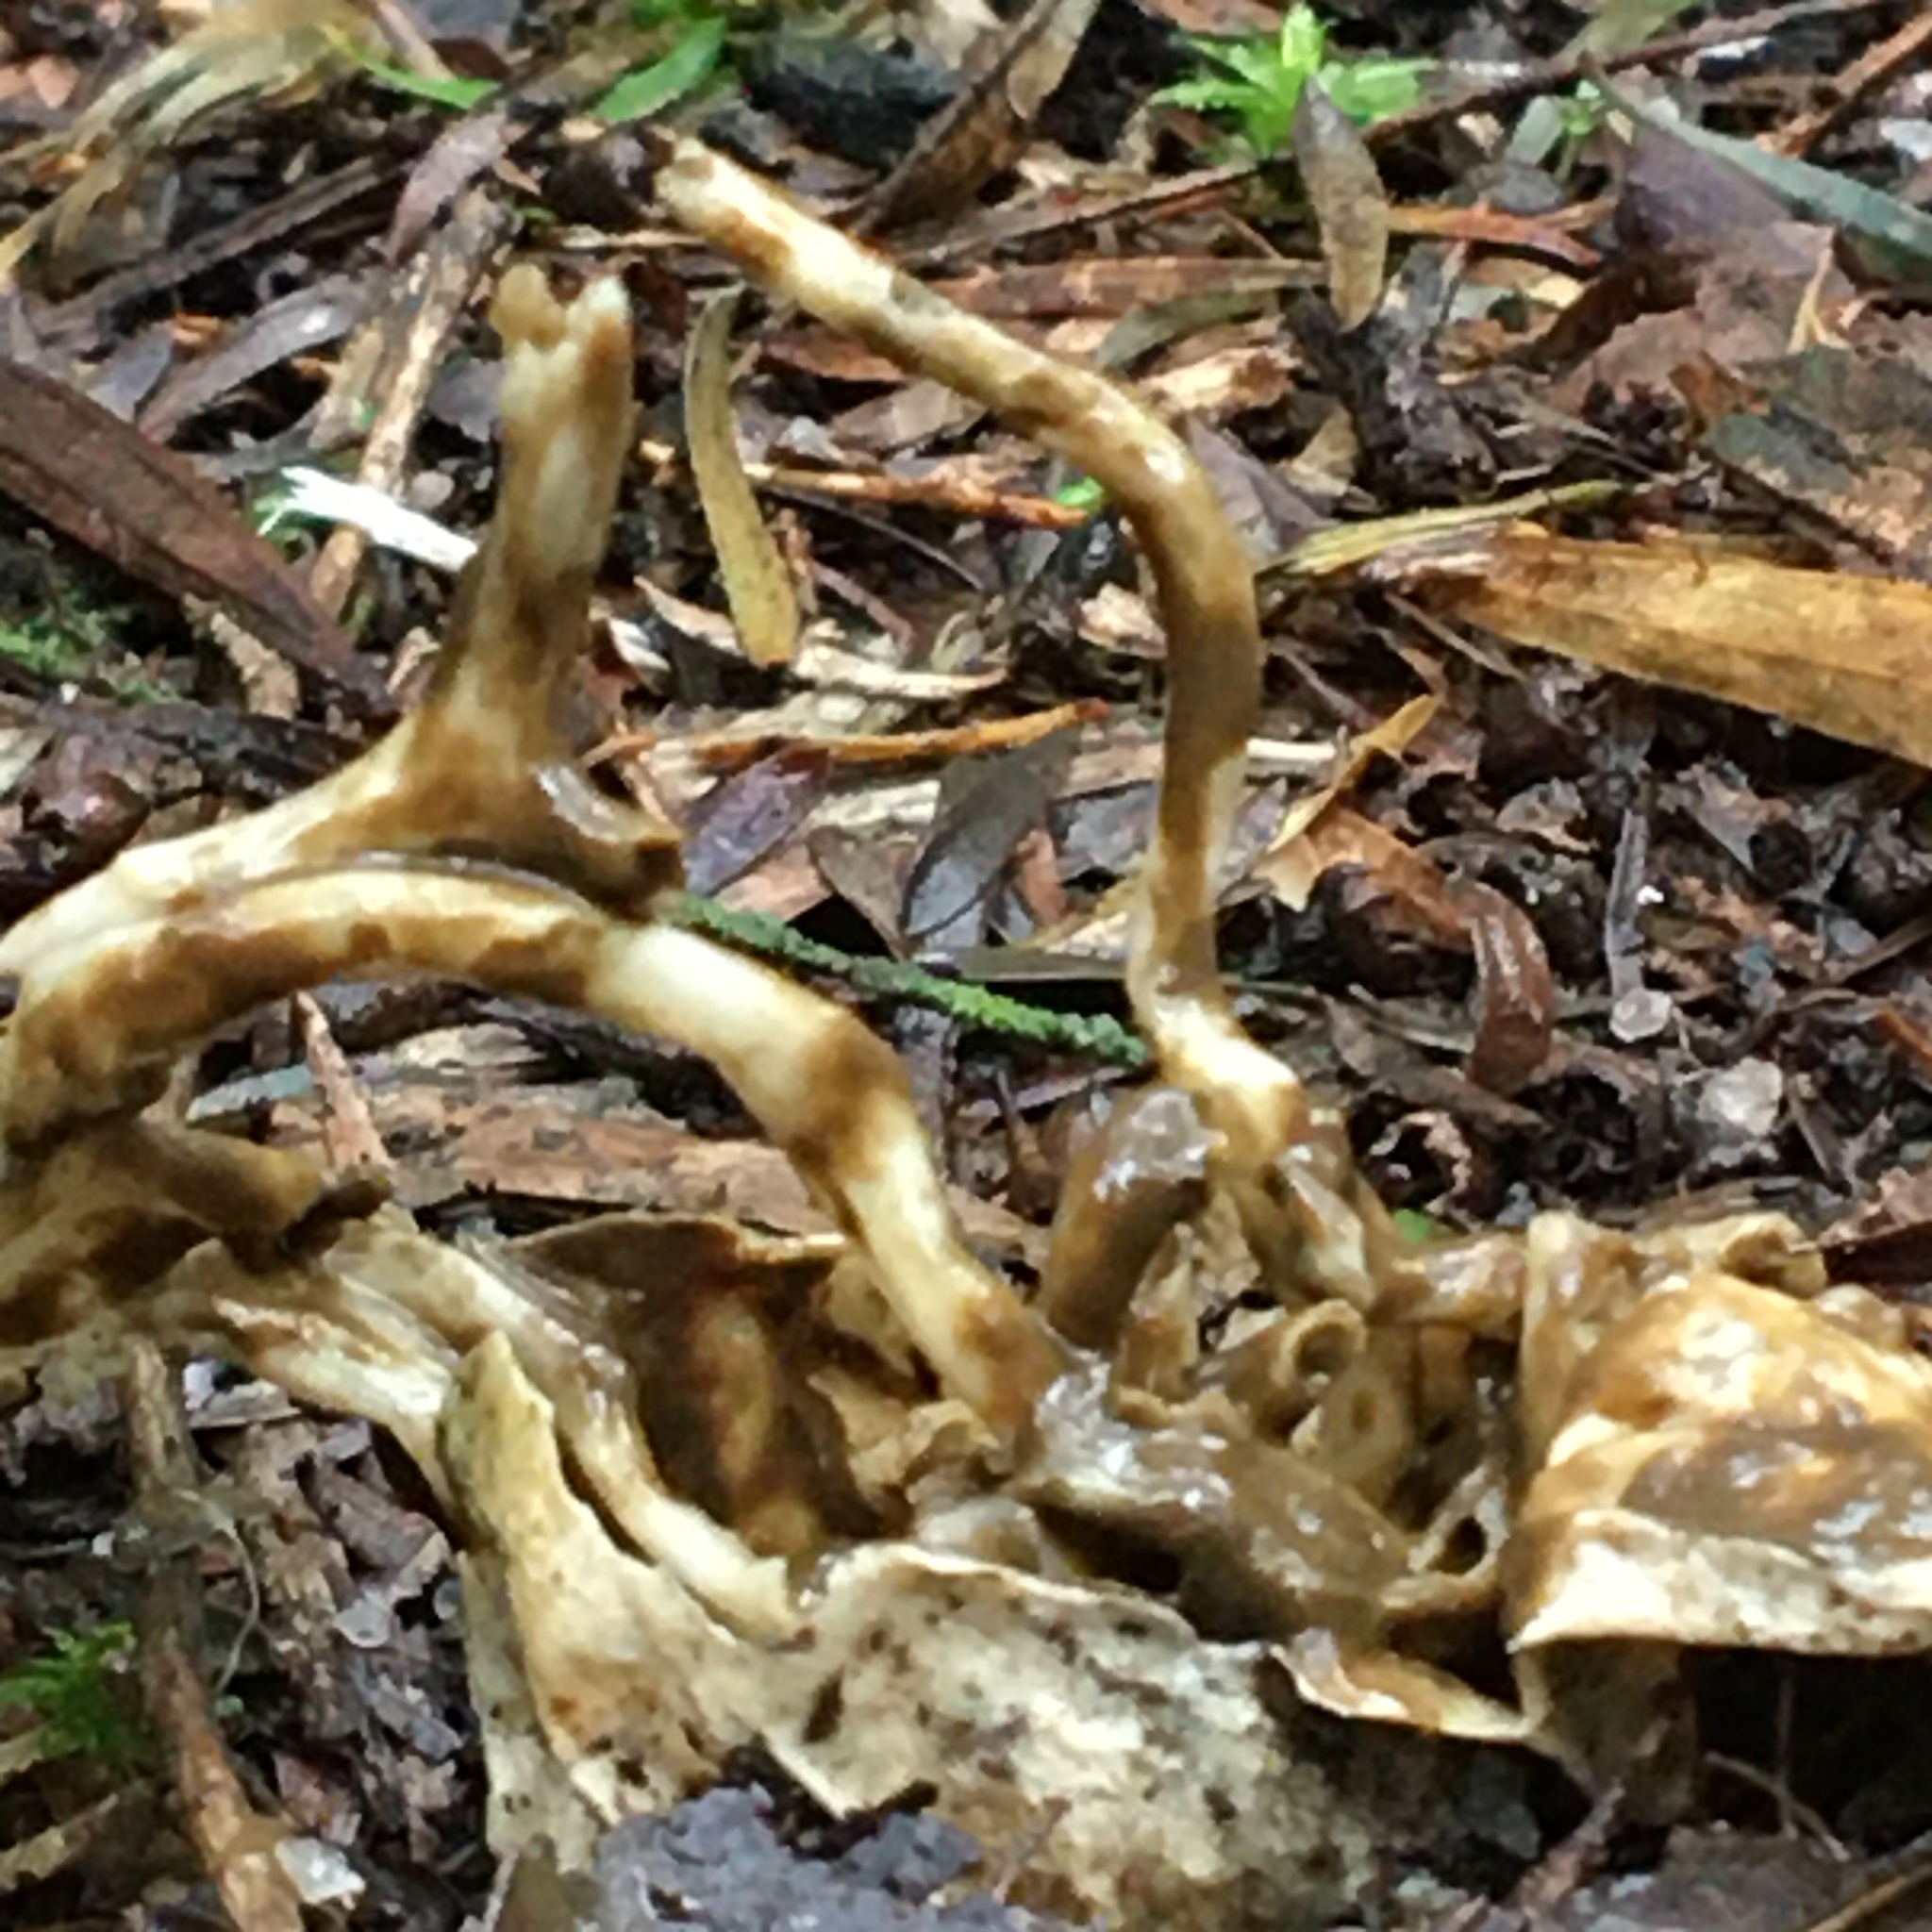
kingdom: Fungi
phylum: Basidiomycota
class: Agaricomycetes
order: Phallales
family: Phallaceae
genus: Ileodictyon
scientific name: Ileodictyon gracile
